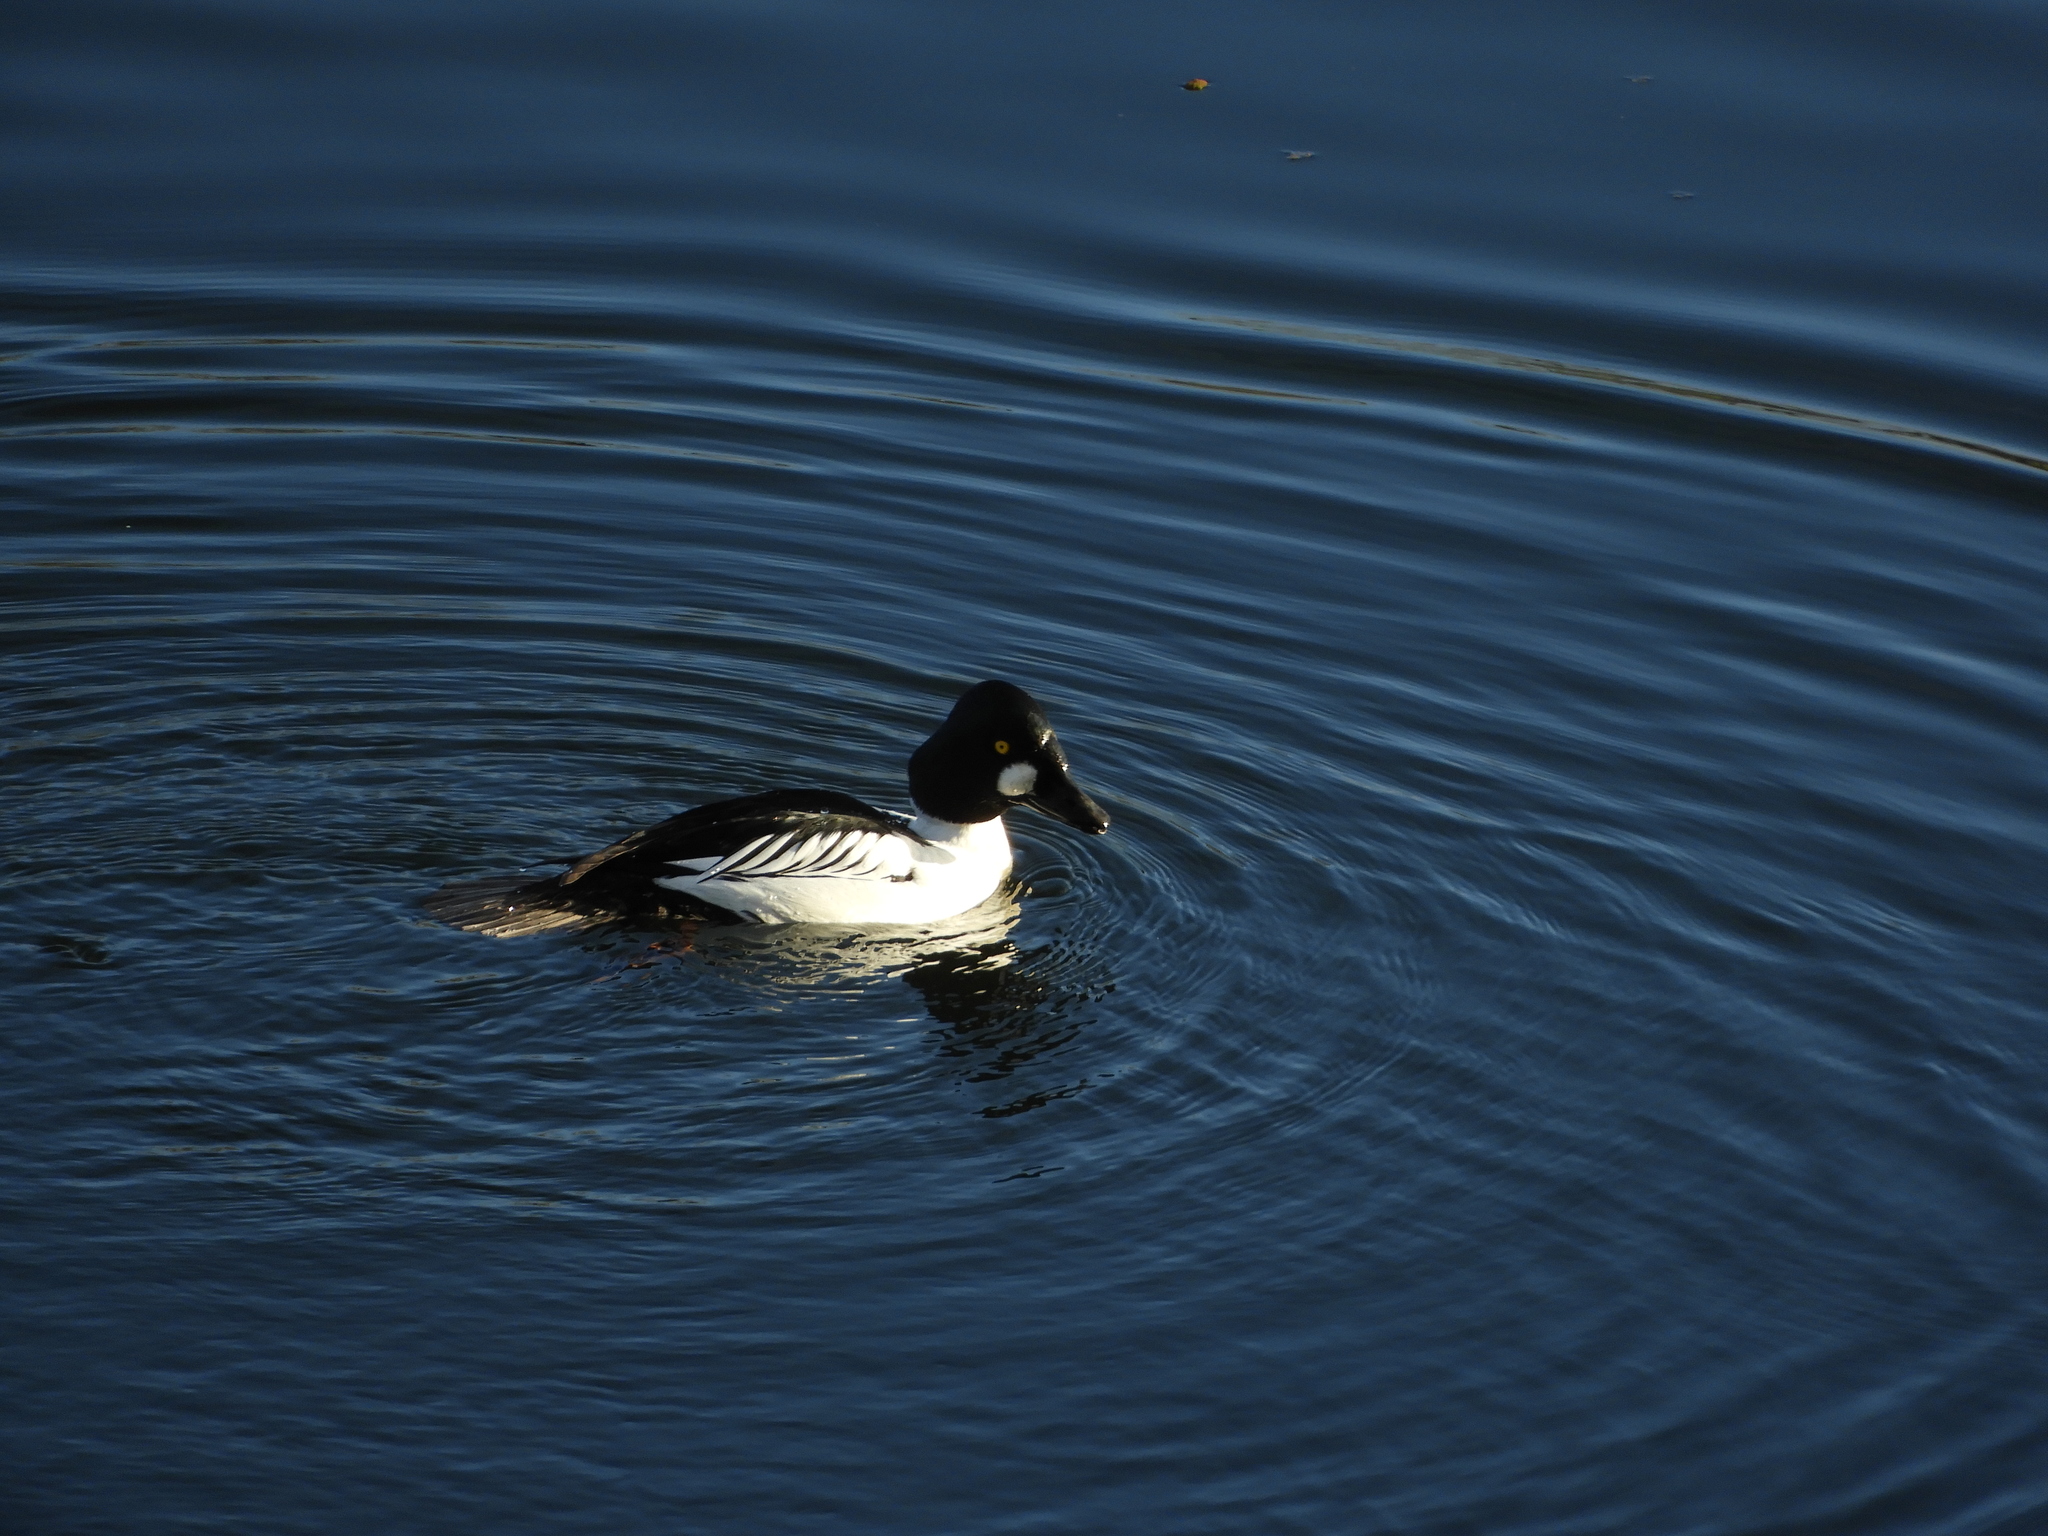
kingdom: Animalia
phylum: Chordata
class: Aves
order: Anseriformes
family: Anatidae
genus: Bucephala
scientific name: Bucephala clangula
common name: Common goldeneye
